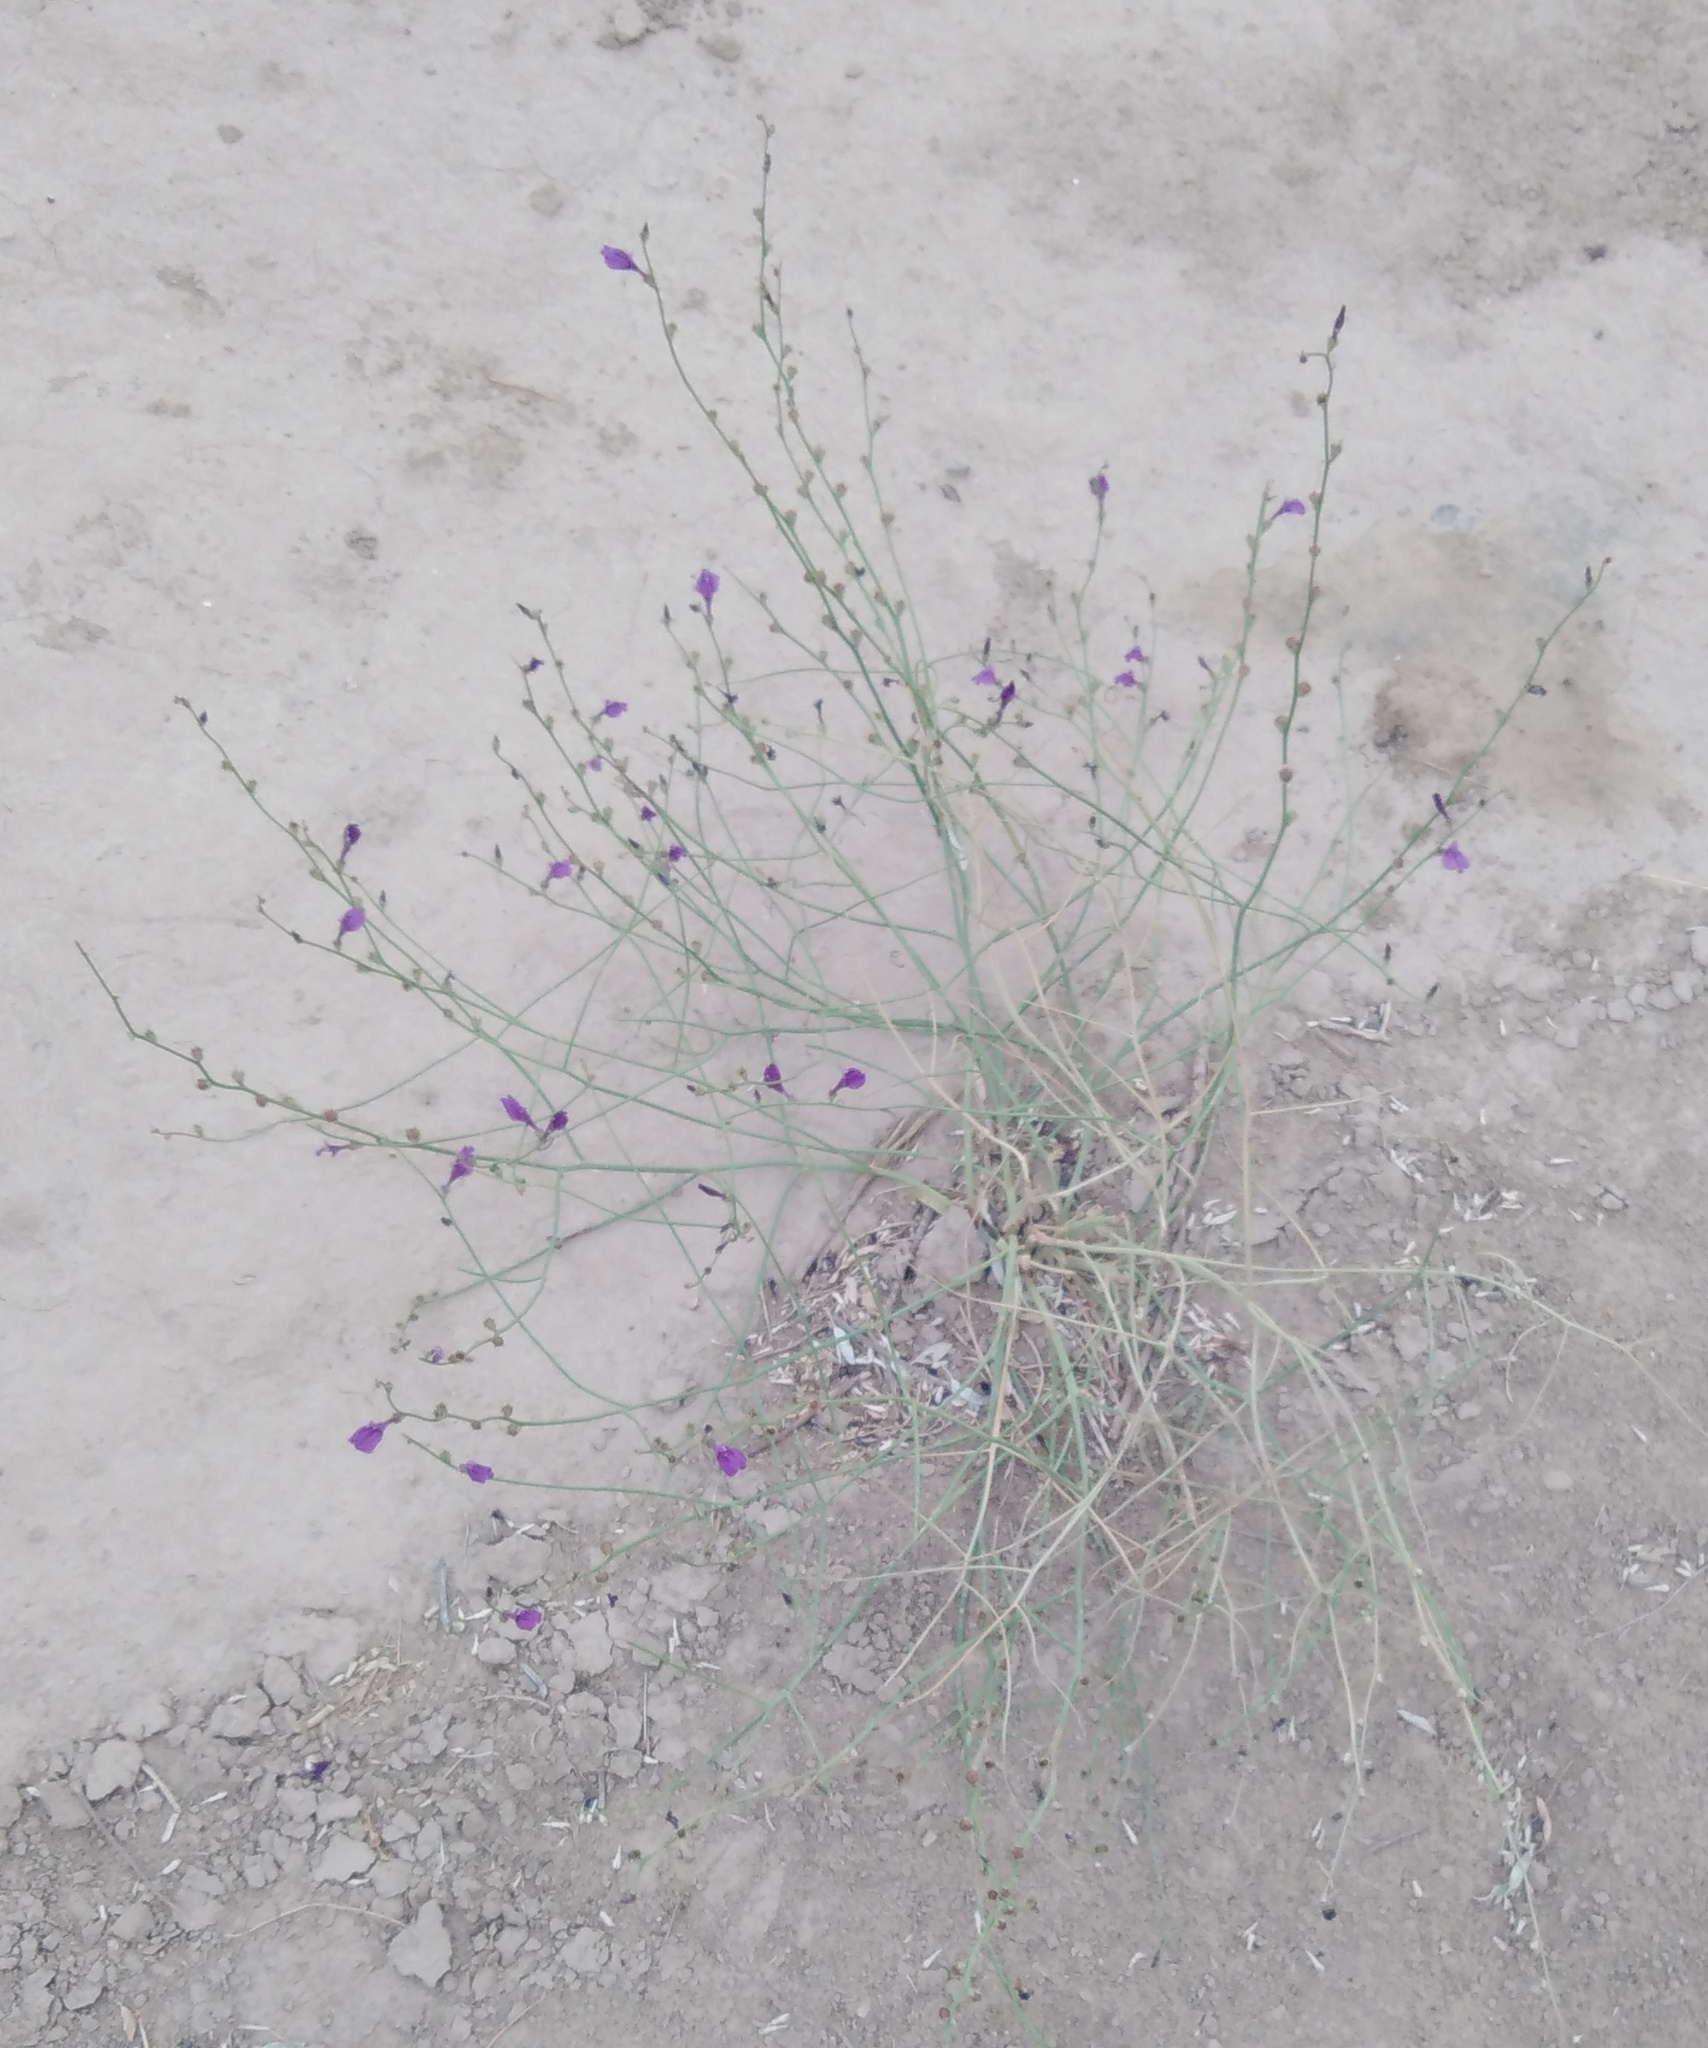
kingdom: Plantae
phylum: Tracheophyta
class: Magnoliopsida
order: Lamiales
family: Mazaceae
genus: Dodartia
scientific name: Dodartia orientalis
